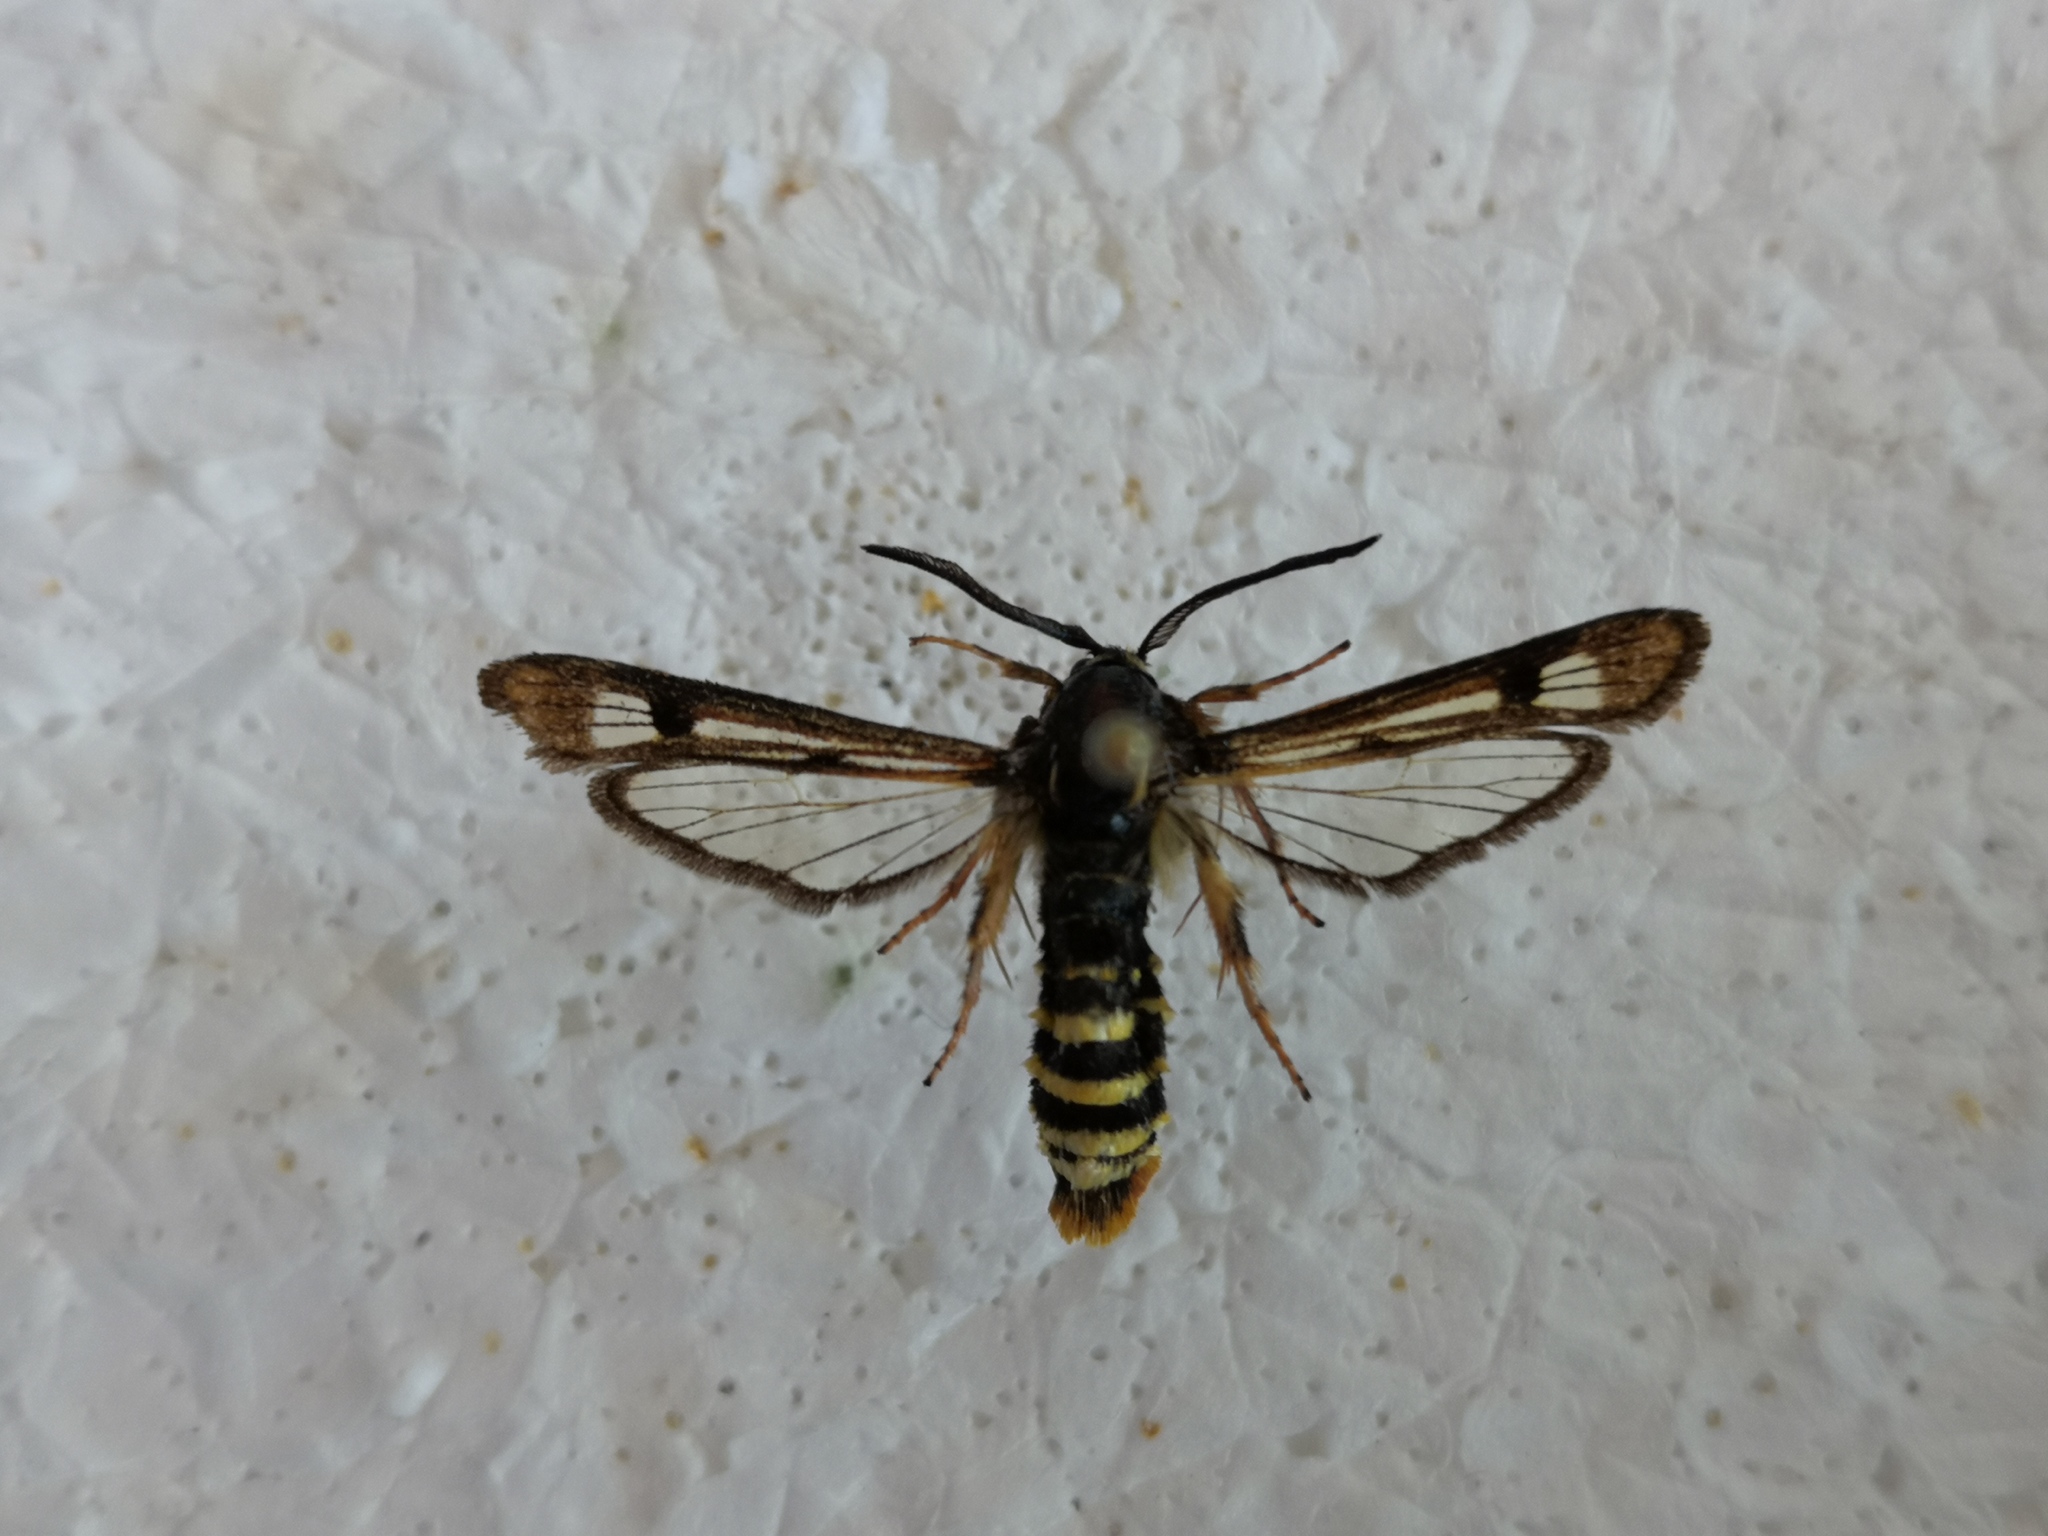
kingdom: Animalia
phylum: Arthropoda
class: Insecta
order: Lepidoptera
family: Sesiidae
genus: Pennisetia
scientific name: Pennisetia hylaeiformis
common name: Raspberry clearwing
